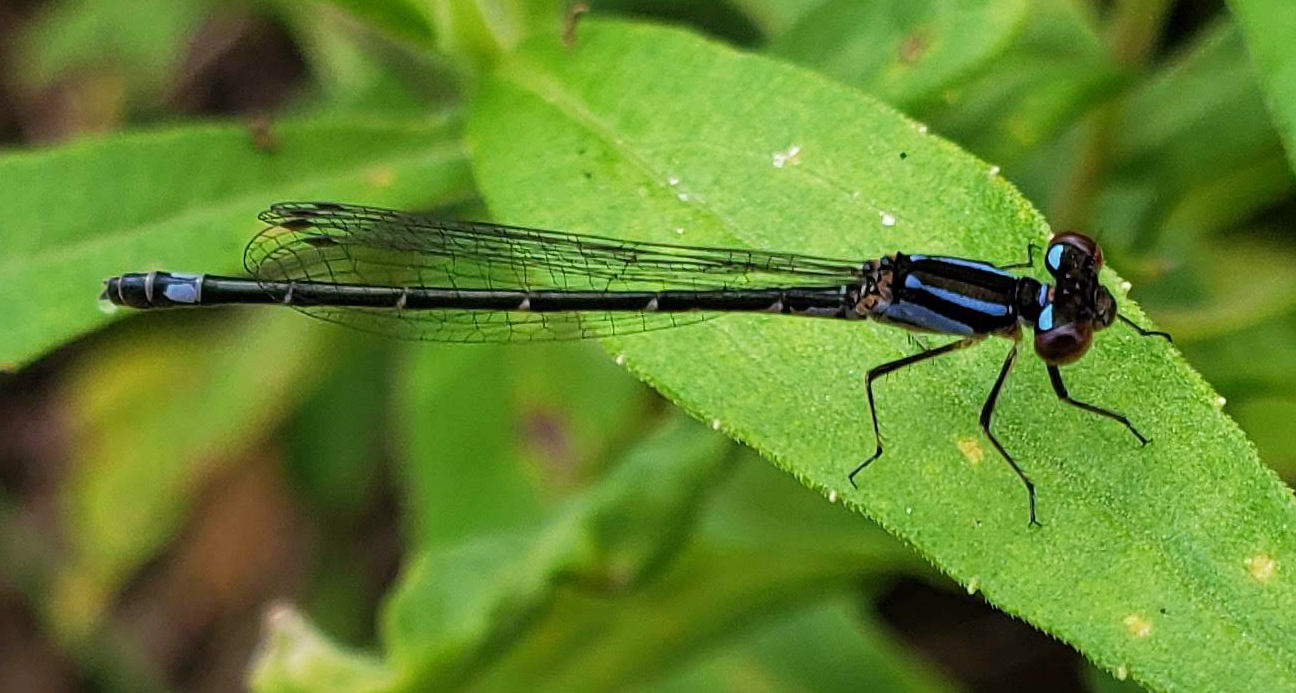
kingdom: Animalia
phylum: Arthropoda
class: Insecta
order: Odonata
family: Coenagrionidae
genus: Enallagma
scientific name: Enallagma geminatum
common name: Skimming bluet
